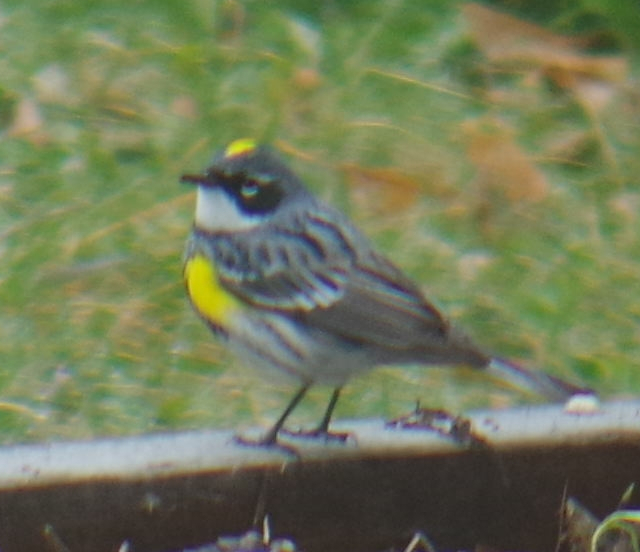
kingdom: Animalia
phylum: Chordata
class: Aves
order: Passeriformes
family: Parulidae
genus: Setophaga
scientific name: Setophaga coronata
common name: Myrtle warbler
